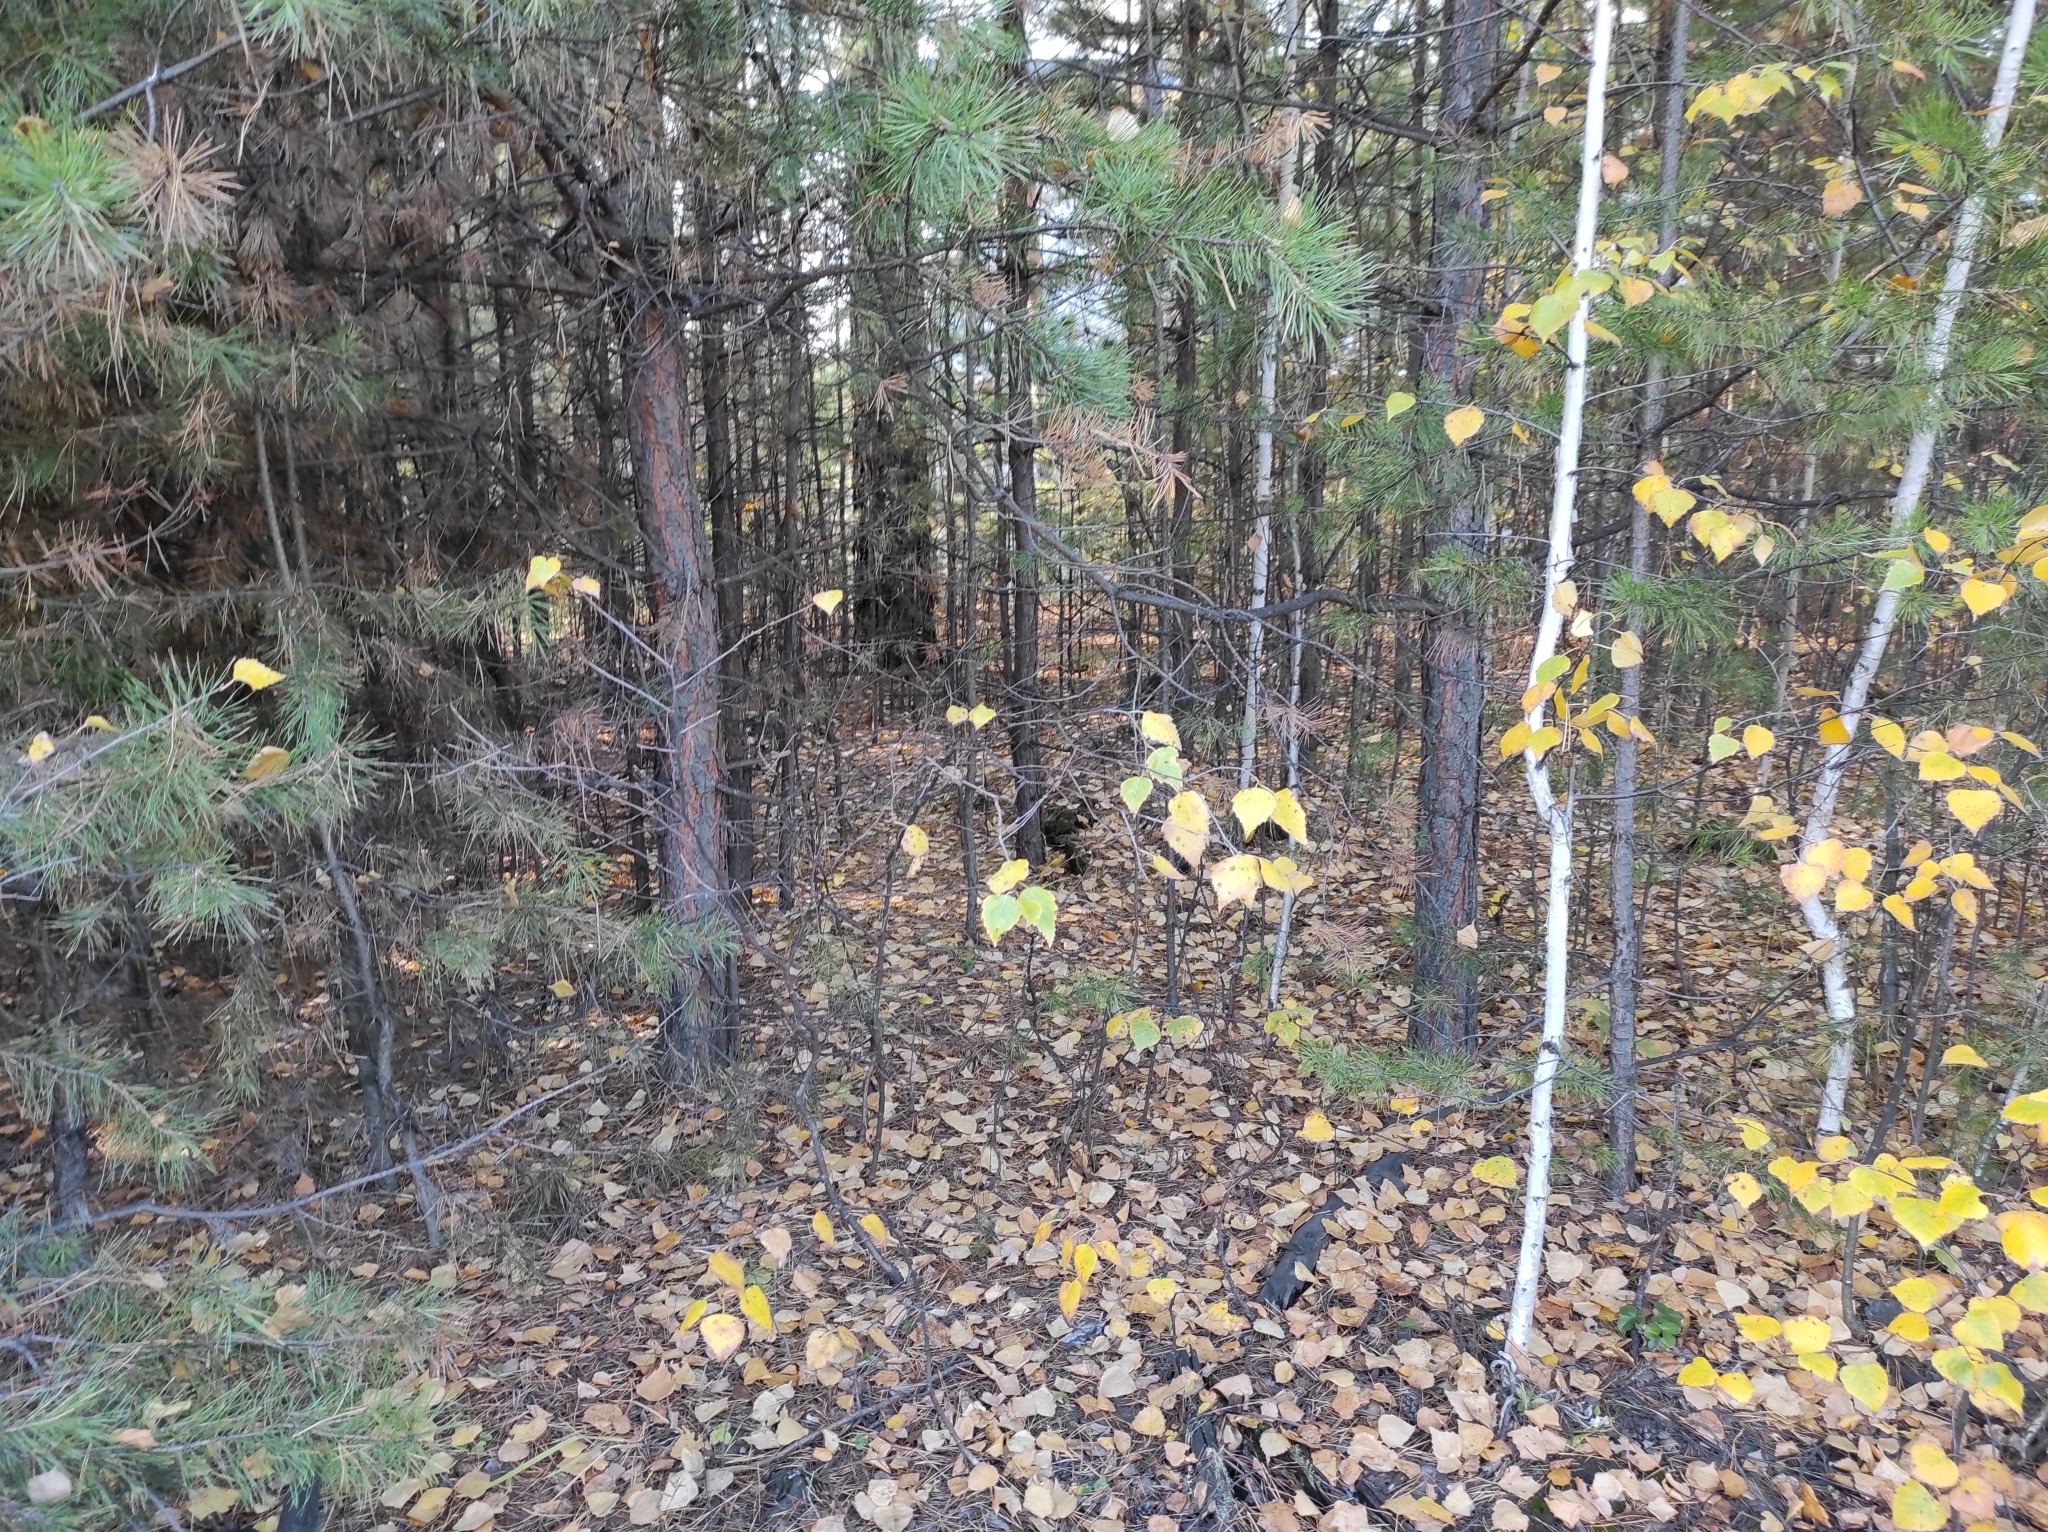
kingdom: Plantae
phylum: Tracheophyta
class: Pinopsida
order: Pinales
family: Pinaceae
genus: Pinus
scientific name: Pinus sylvestris
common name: Scots pine
